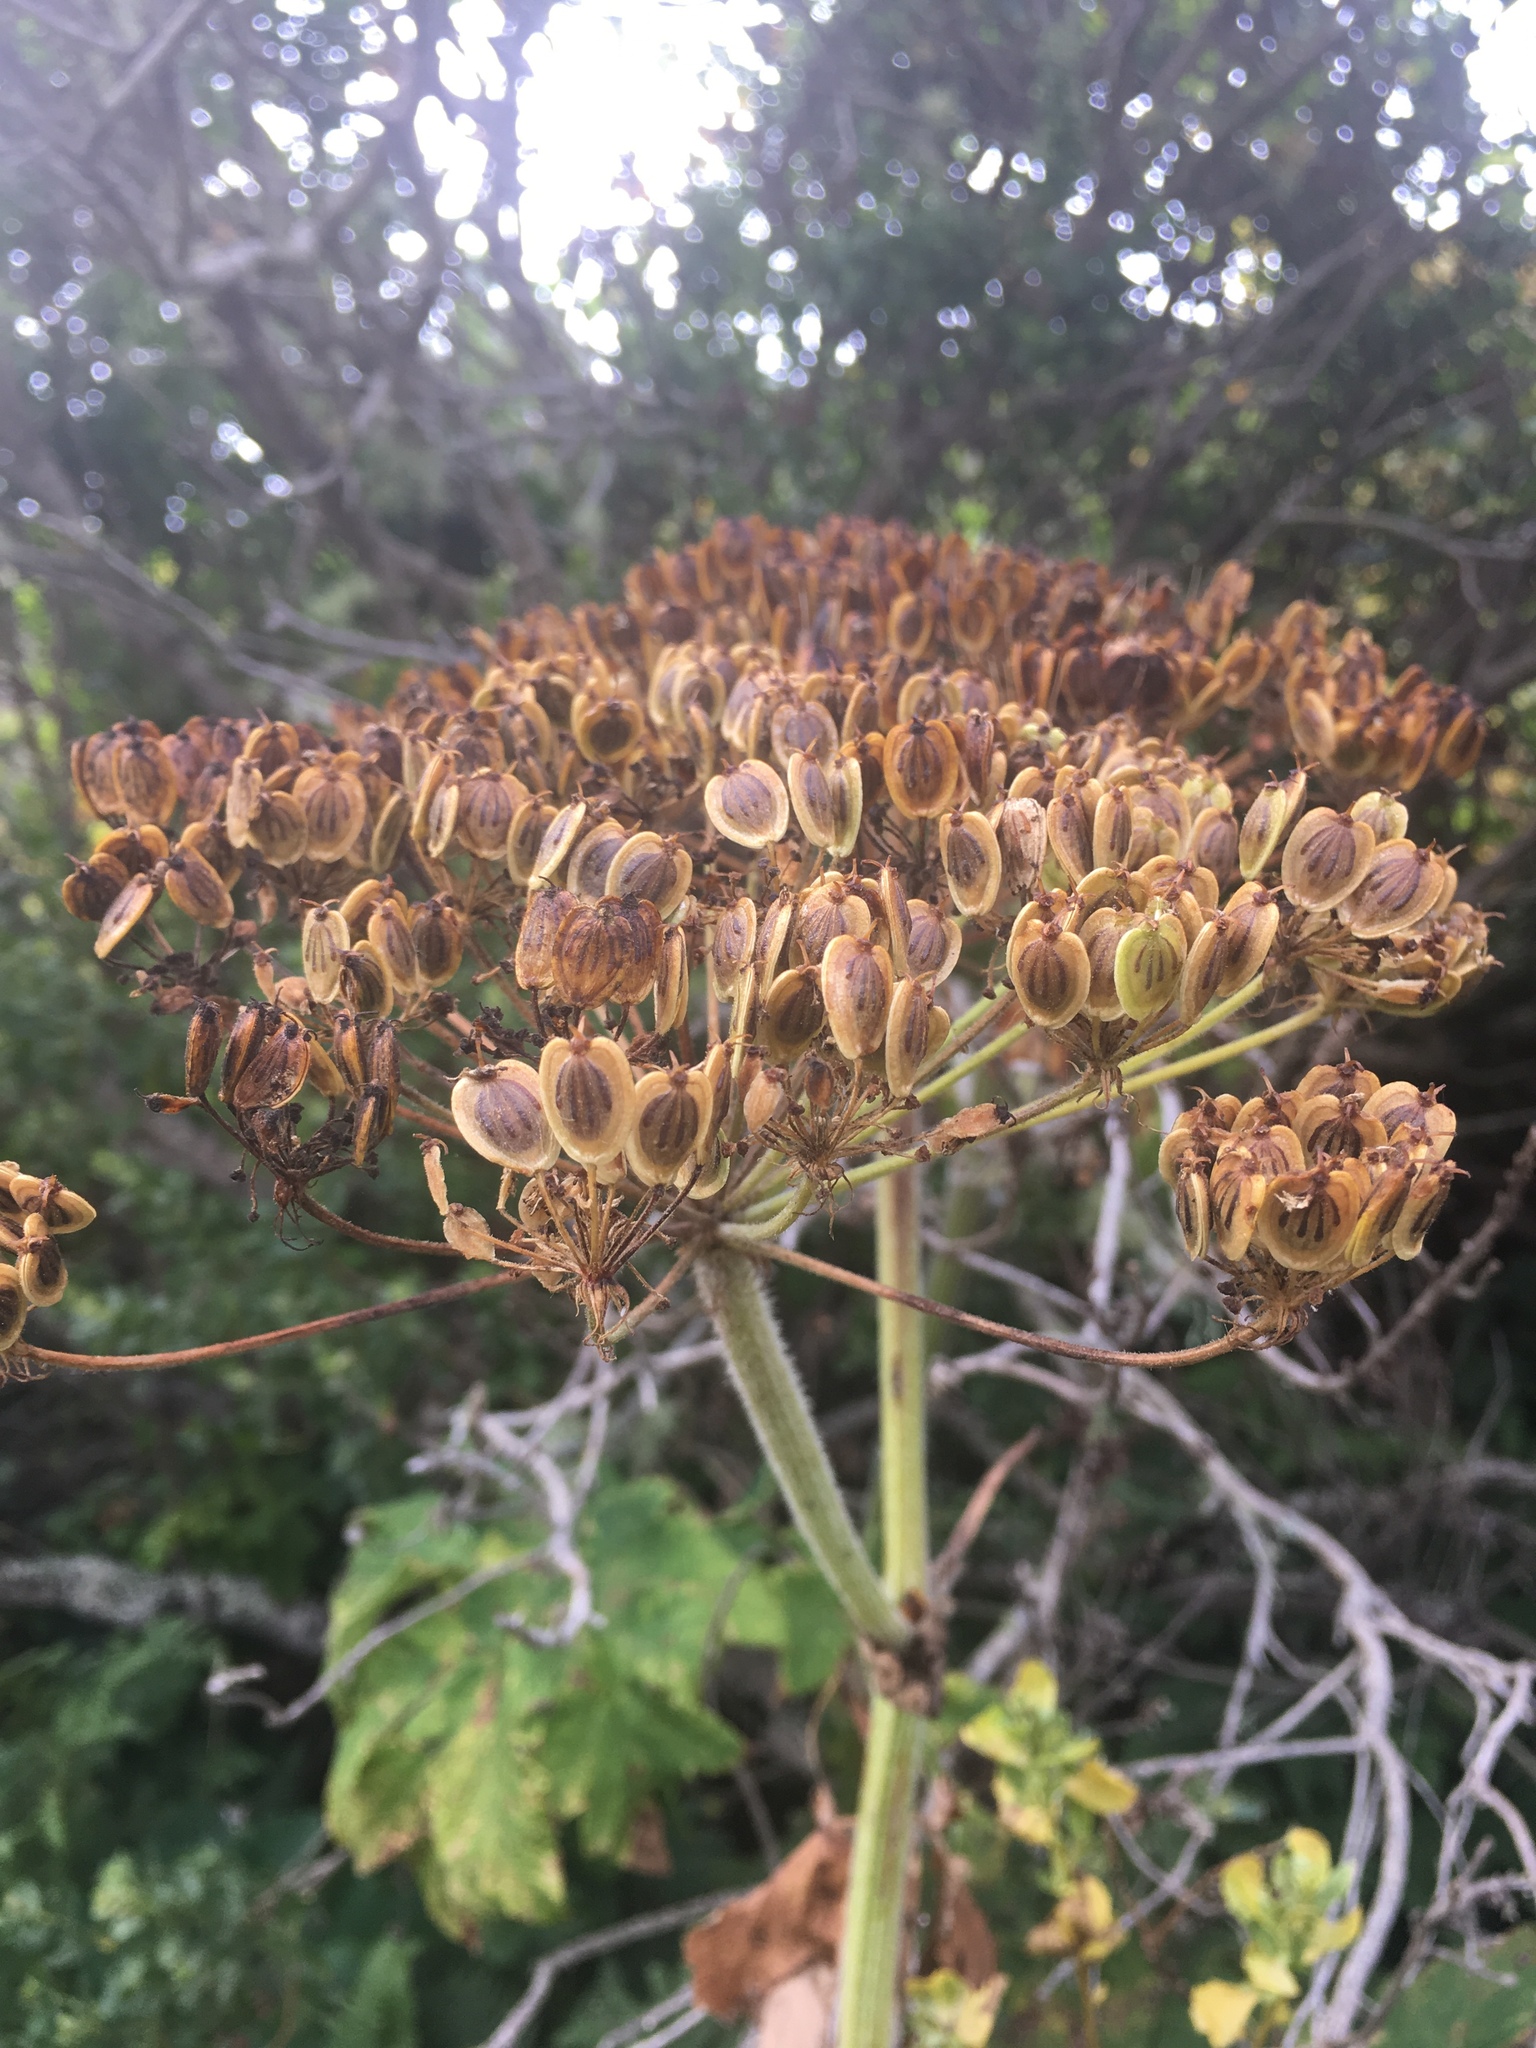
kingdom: Plantae
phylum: Tracheophyta
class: Magnoliopsida
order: Apiales
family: Apiaceae
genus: Heracleum
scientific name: Heracleum maximum
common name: American cow parsnip
